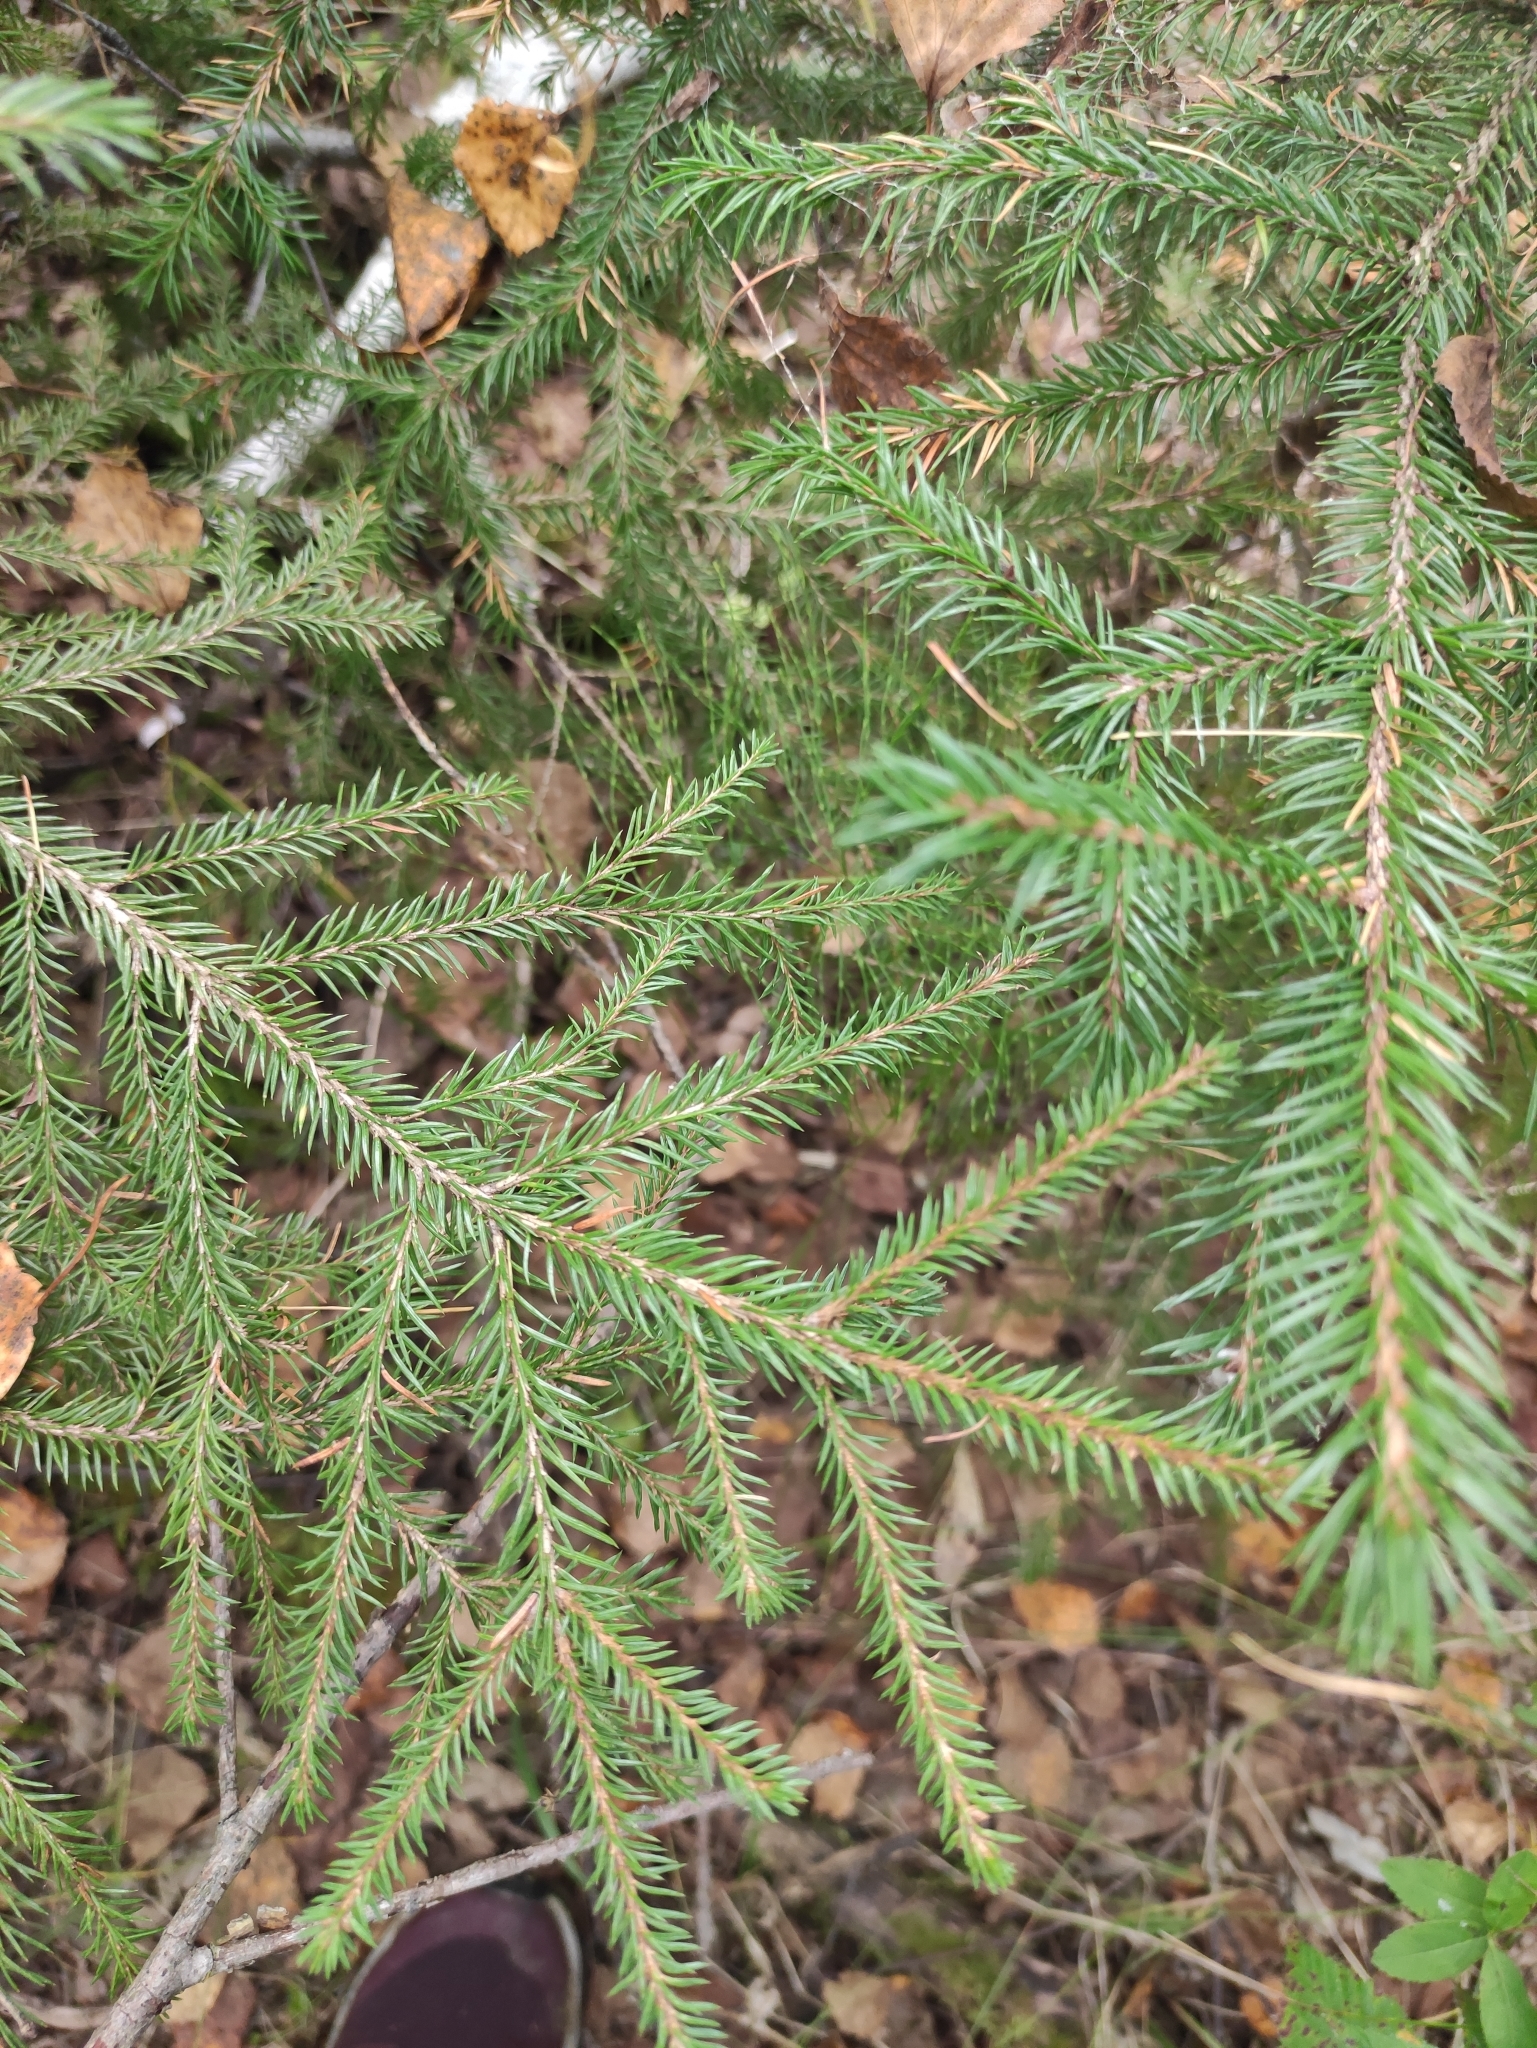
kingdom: Plantae
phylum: Tracheophyta
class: Pinopsida
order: Pinales
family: Pinaceae
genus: Picea
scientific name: Picea obovata
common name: Siberian spruce
